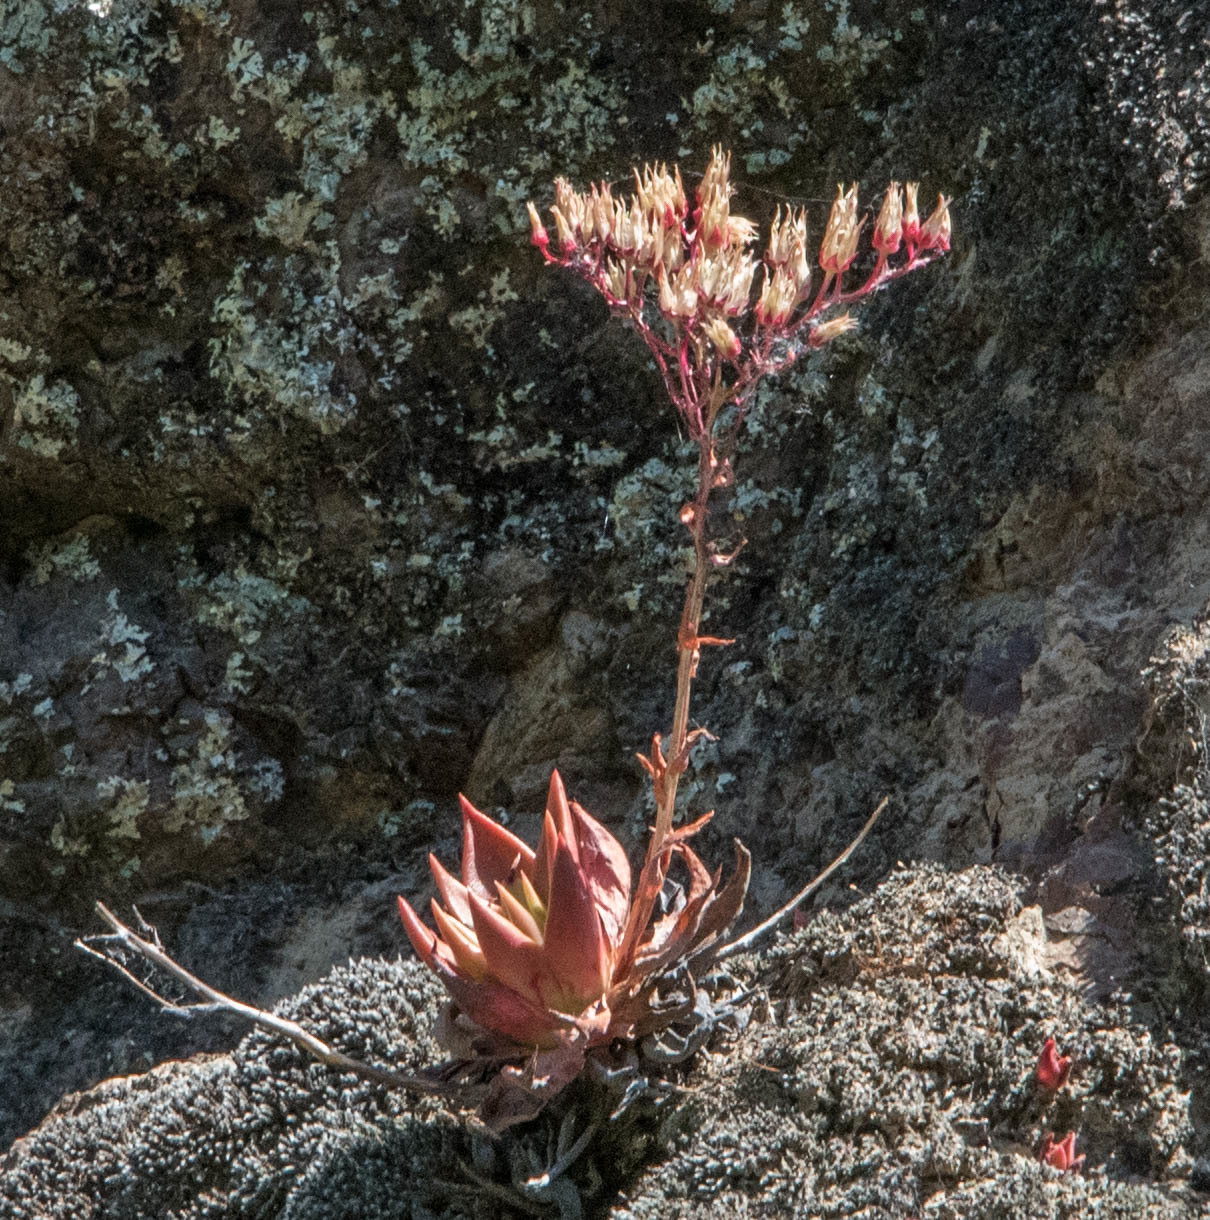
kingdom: Plantae
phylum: Tracheophyta
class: Magnoliopsida
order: Saxifragales
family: Crassulaceae
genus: Dudleya
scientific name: Dudleya cymosa
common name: Canyon dudleya
